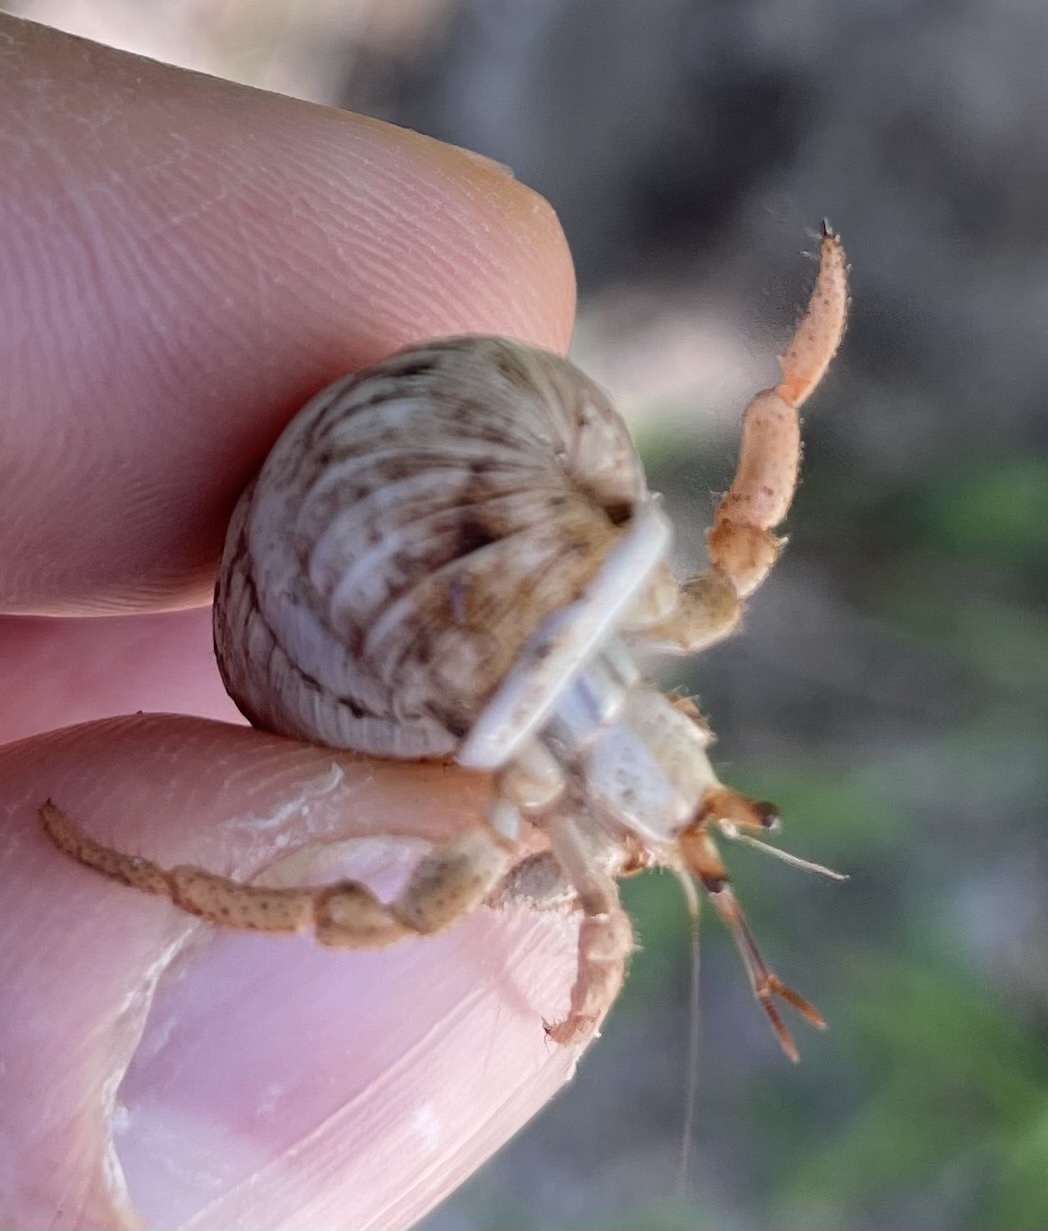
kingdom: Animalia
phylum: Arthropoda
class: Malacostraca
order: Decapoda
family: Coenobitidae
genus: Coenobita
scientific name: Coenobita clypeatus
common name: Caribbean hermit crab
